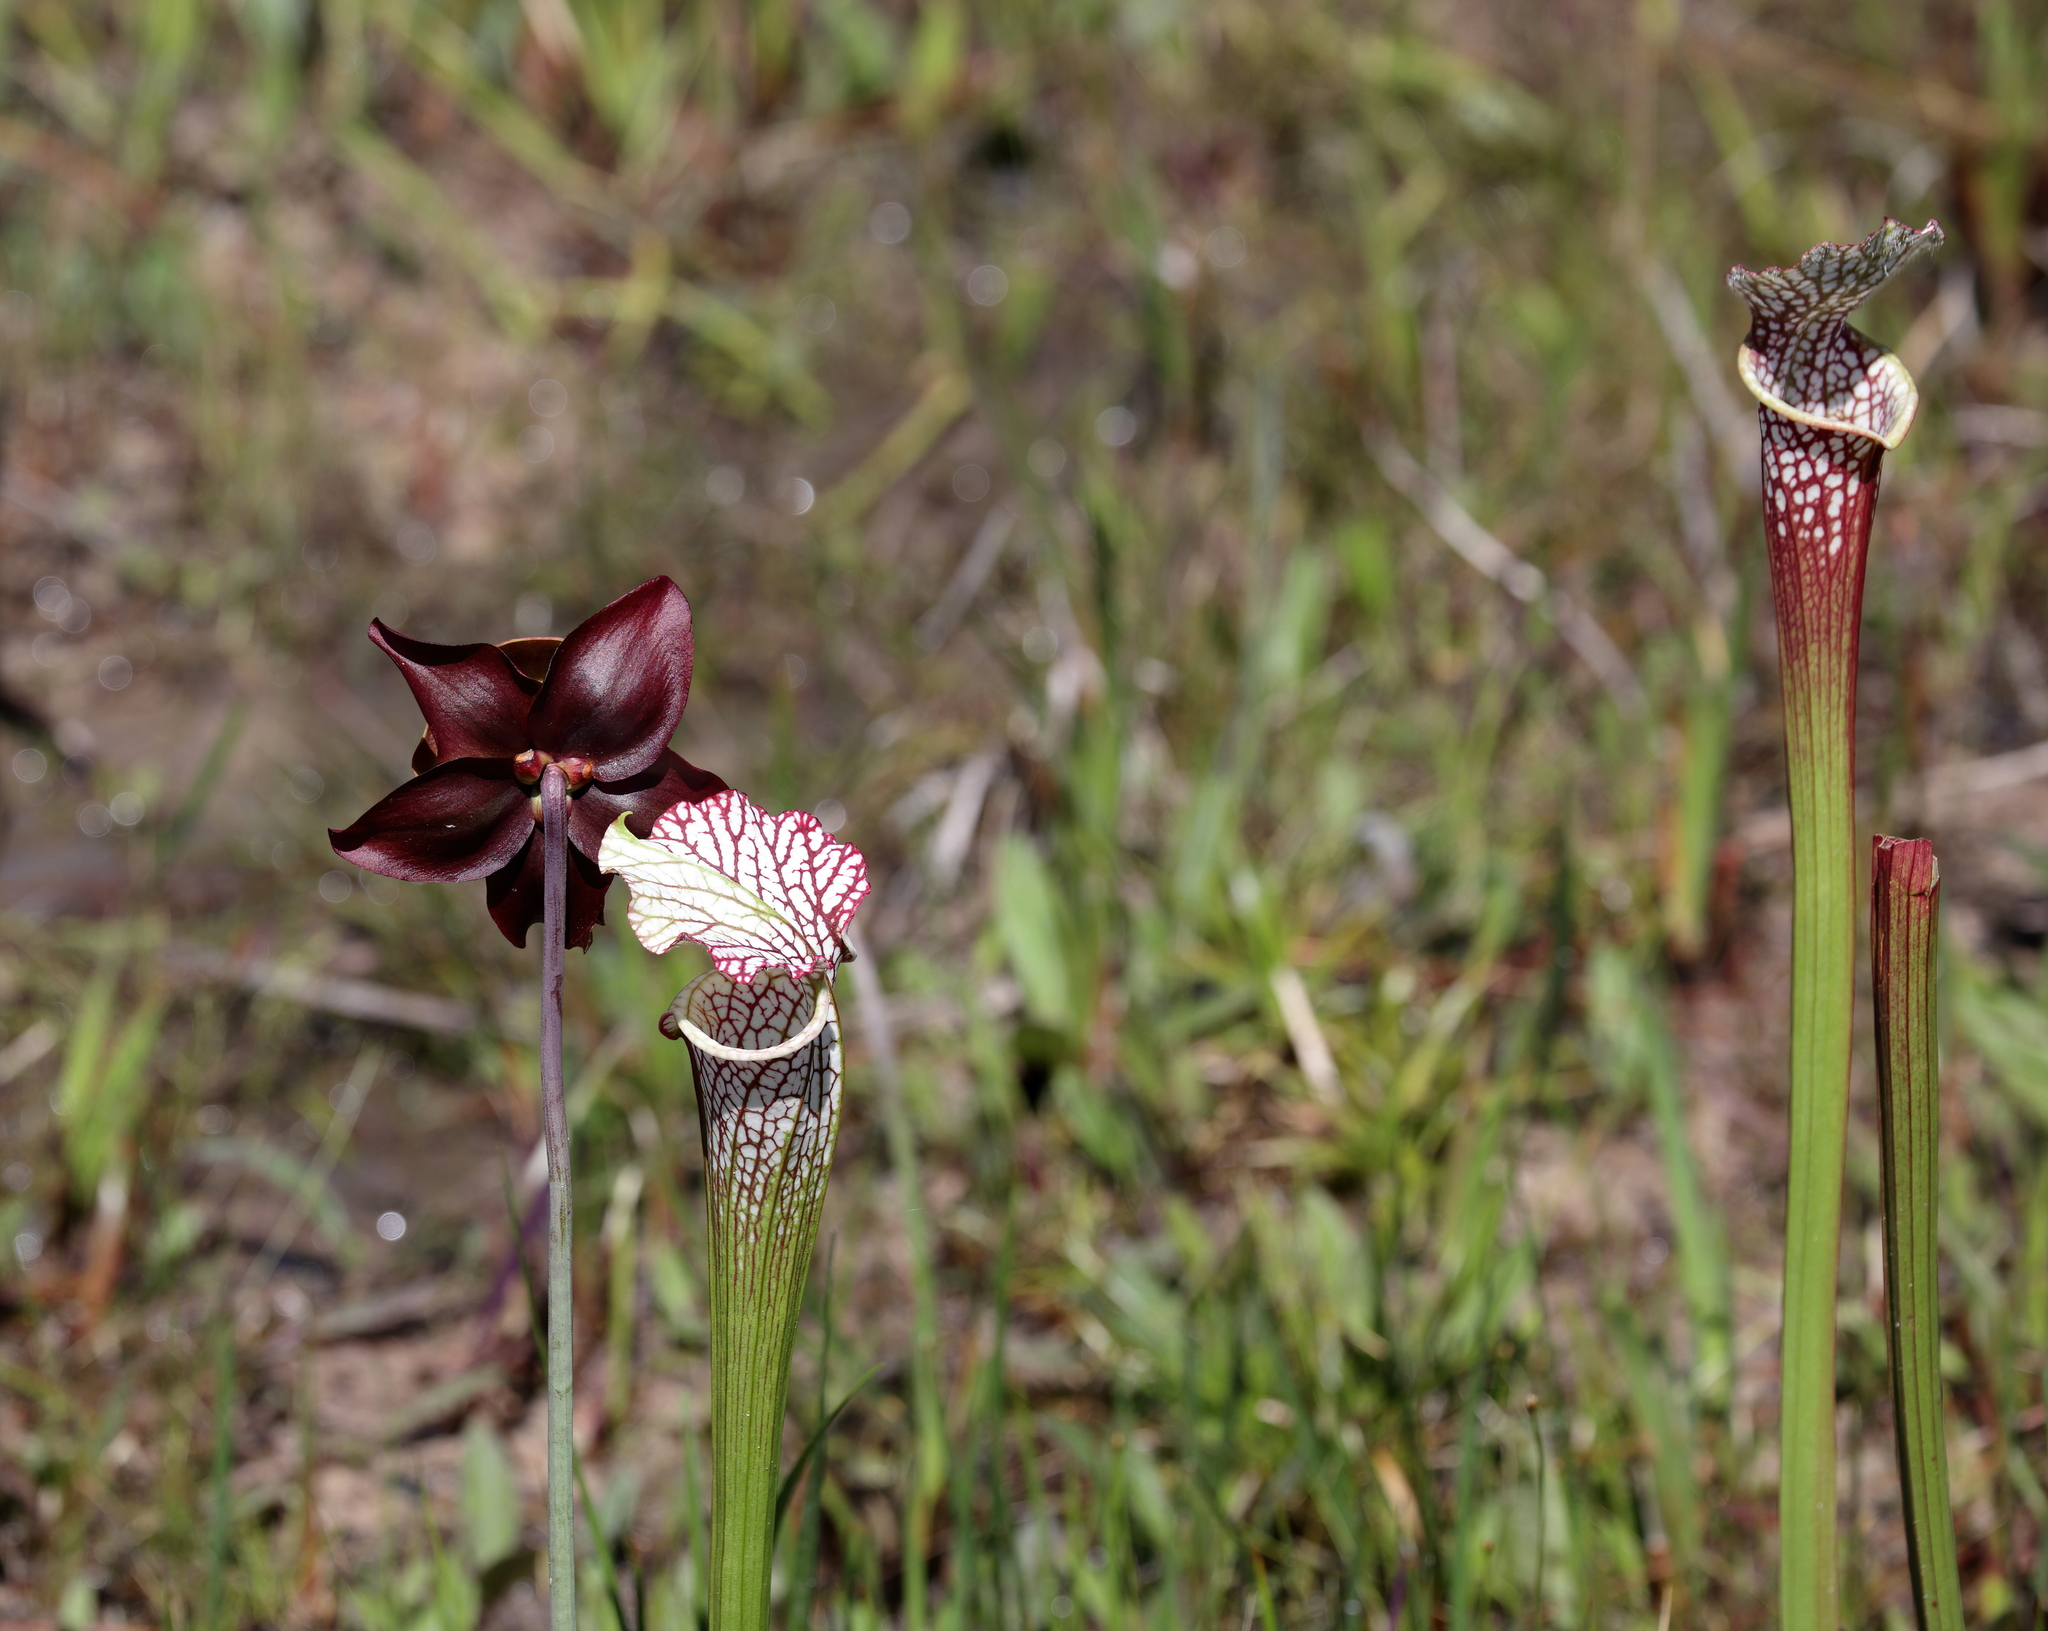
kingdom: Plantae
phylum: Tracheophyta
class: Magnoliopsida
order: Ericales
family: Sarraceniaceae
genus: Sarracenia
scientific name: Sarracenia leucophylla
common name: Purple trumpetleaf
